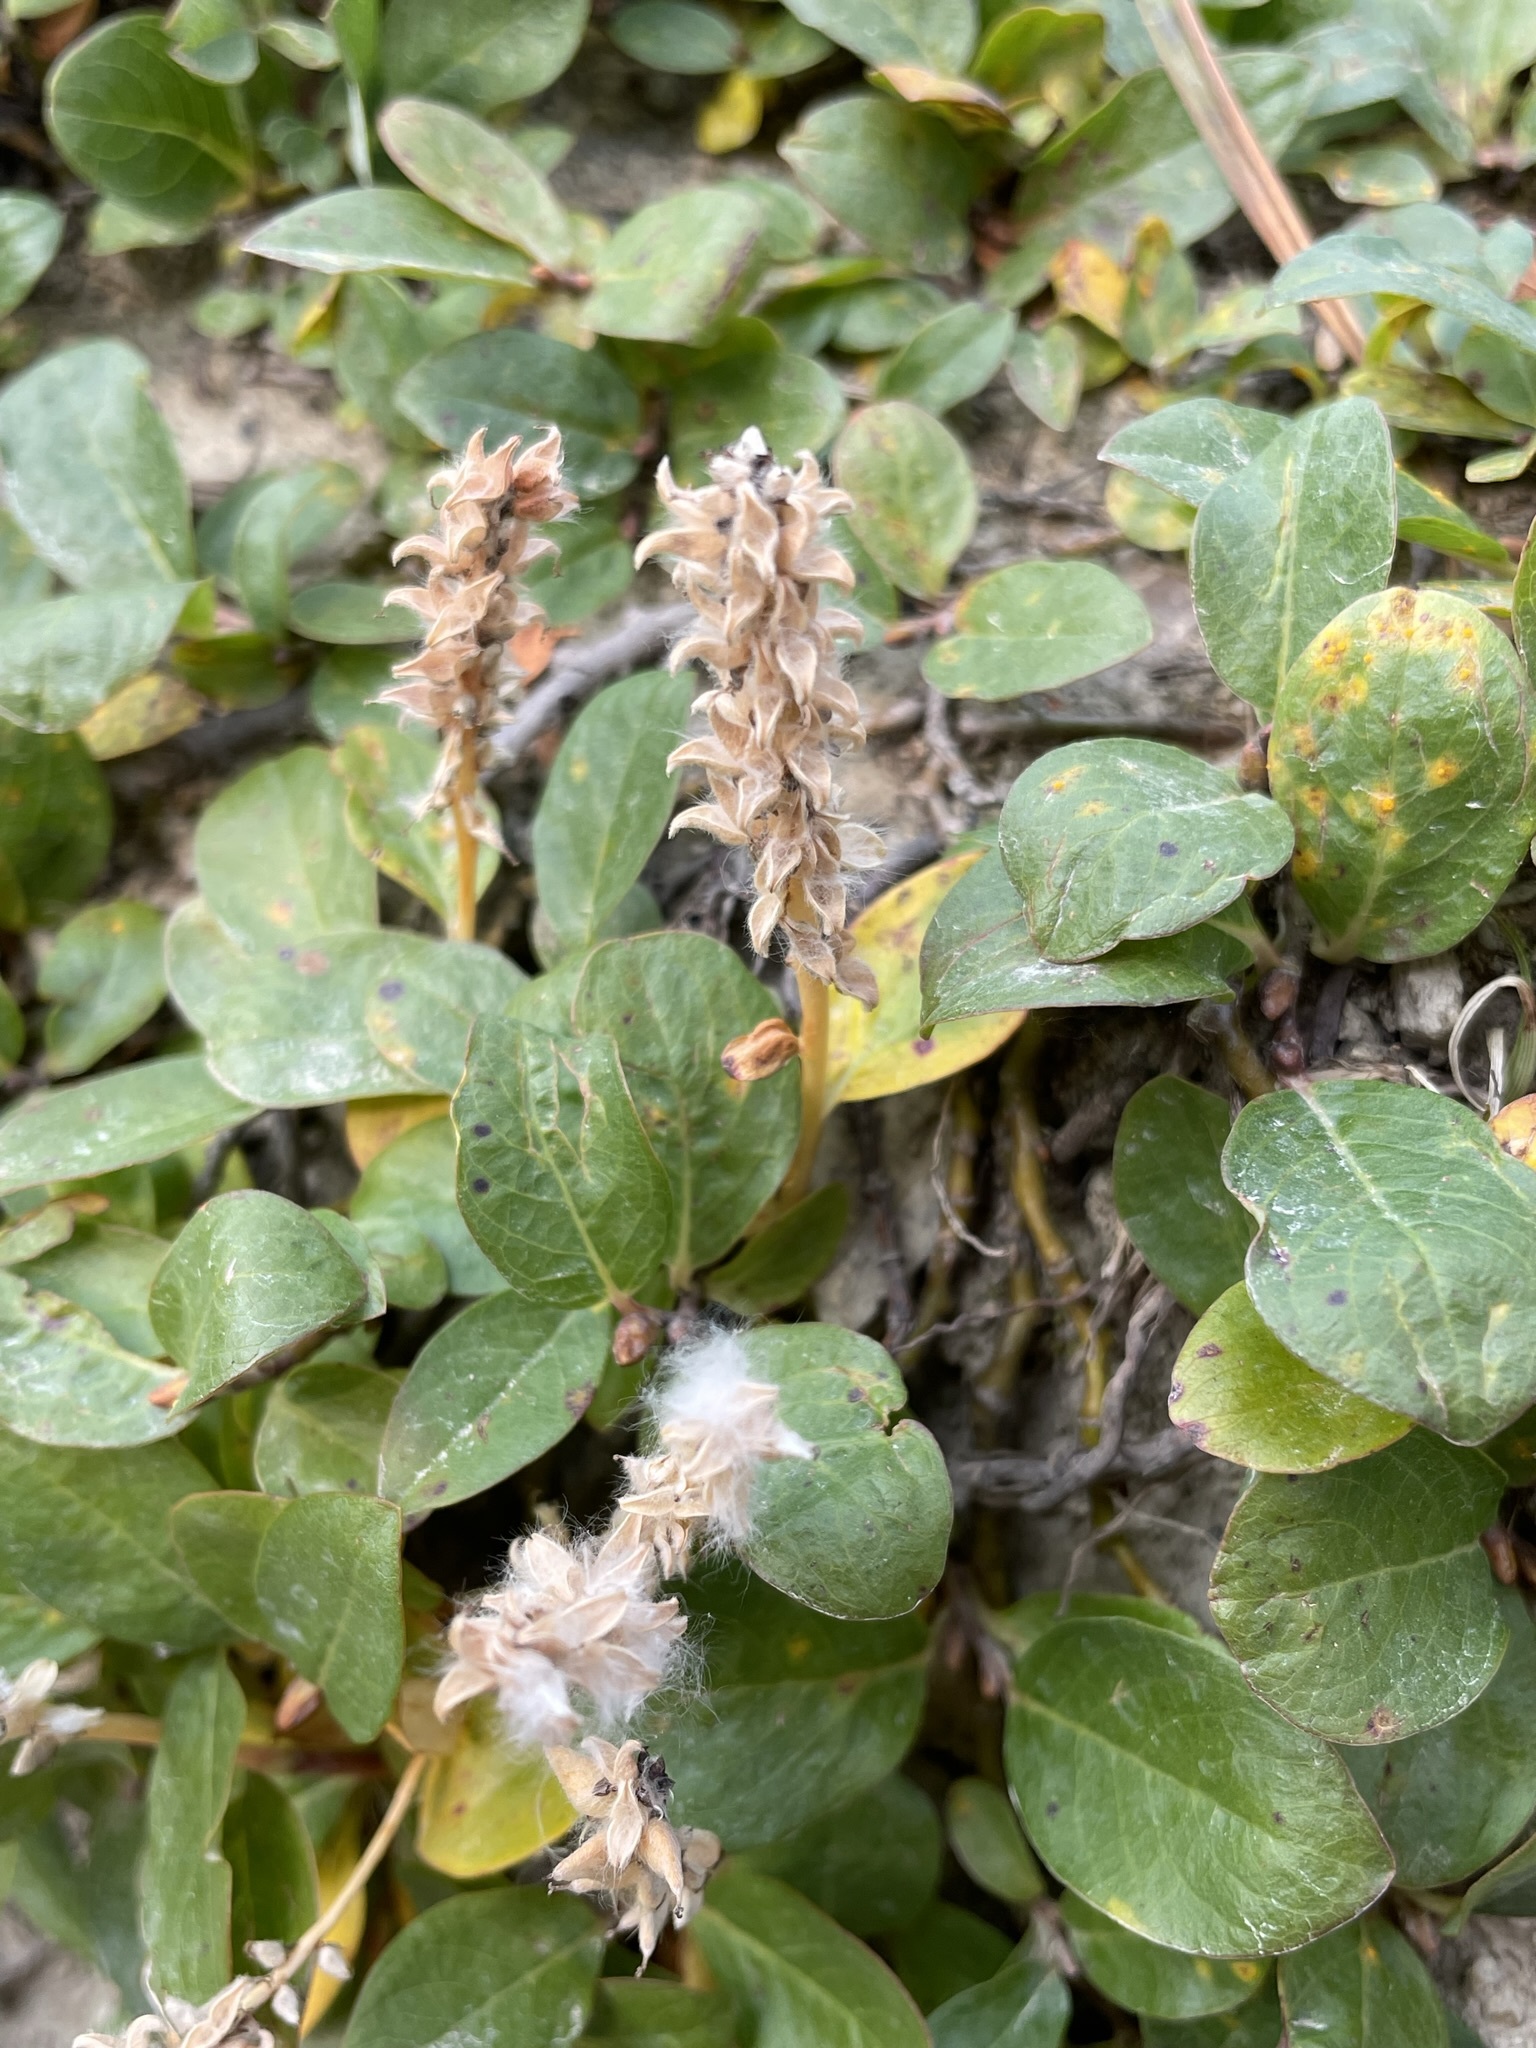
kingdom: Plantae
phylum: Tracheophyta
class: Magnoliopsida
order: Malpighiales
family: Salicaceae
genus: Salix
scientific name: Salix petrophila
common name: Rocky mountain willow
